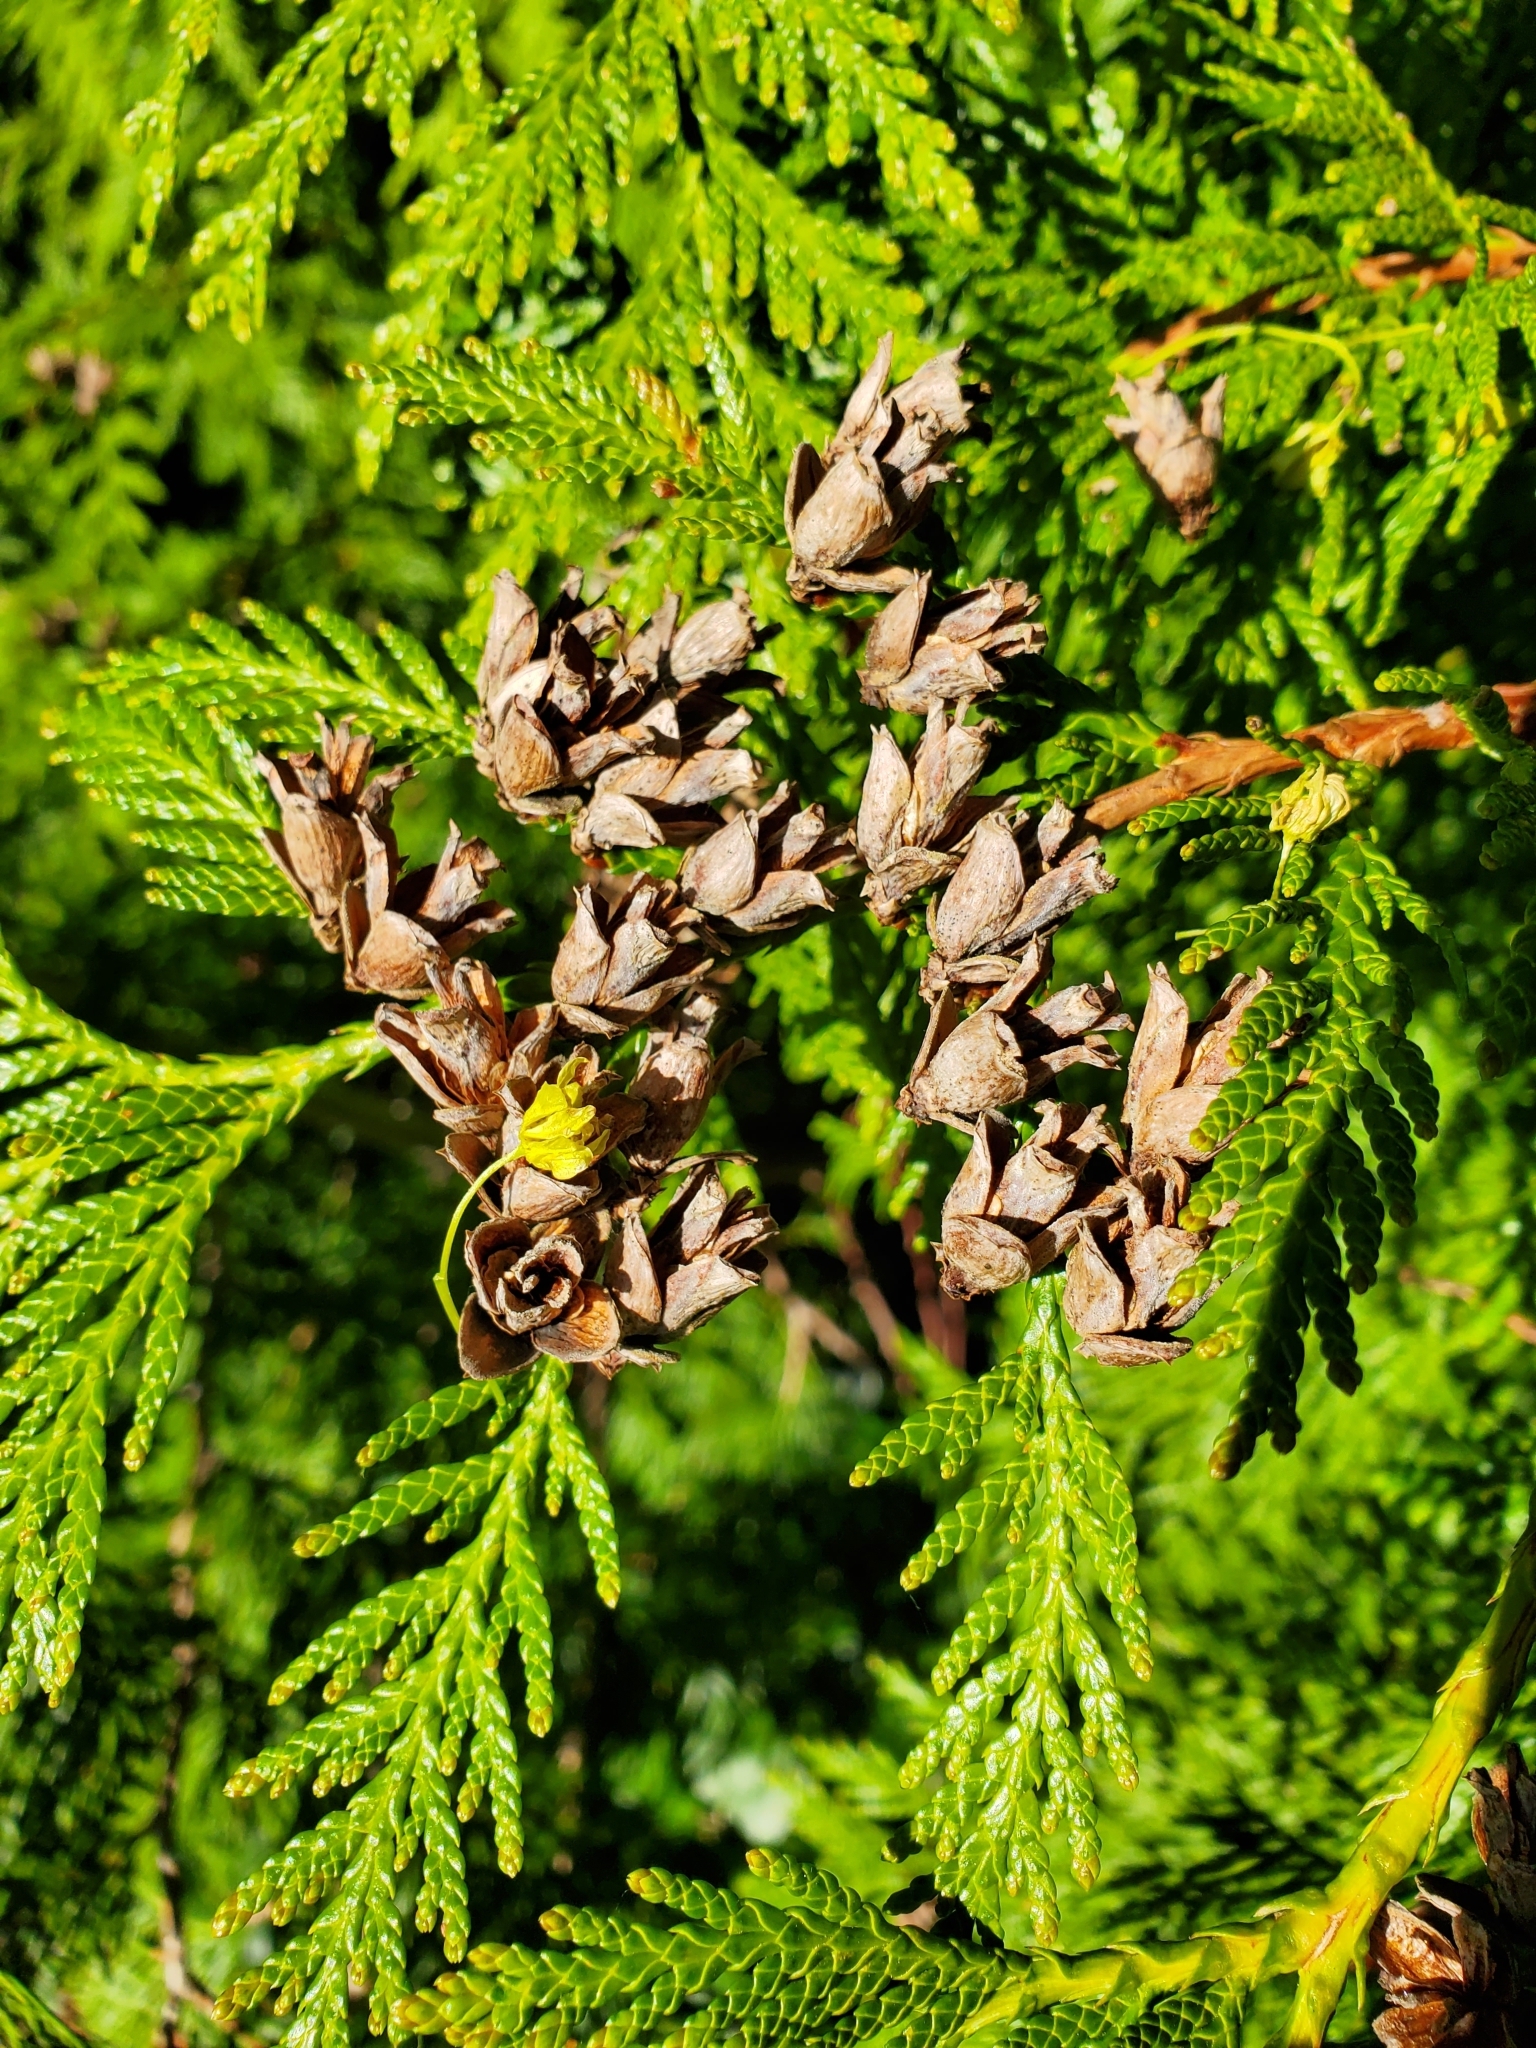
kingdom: Plantae
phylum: Tracheophyta
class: Pinopsida
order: Pinales
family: Cupressaceae
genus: Thuja
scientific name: Thuja plicata
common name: Western red-cedar
